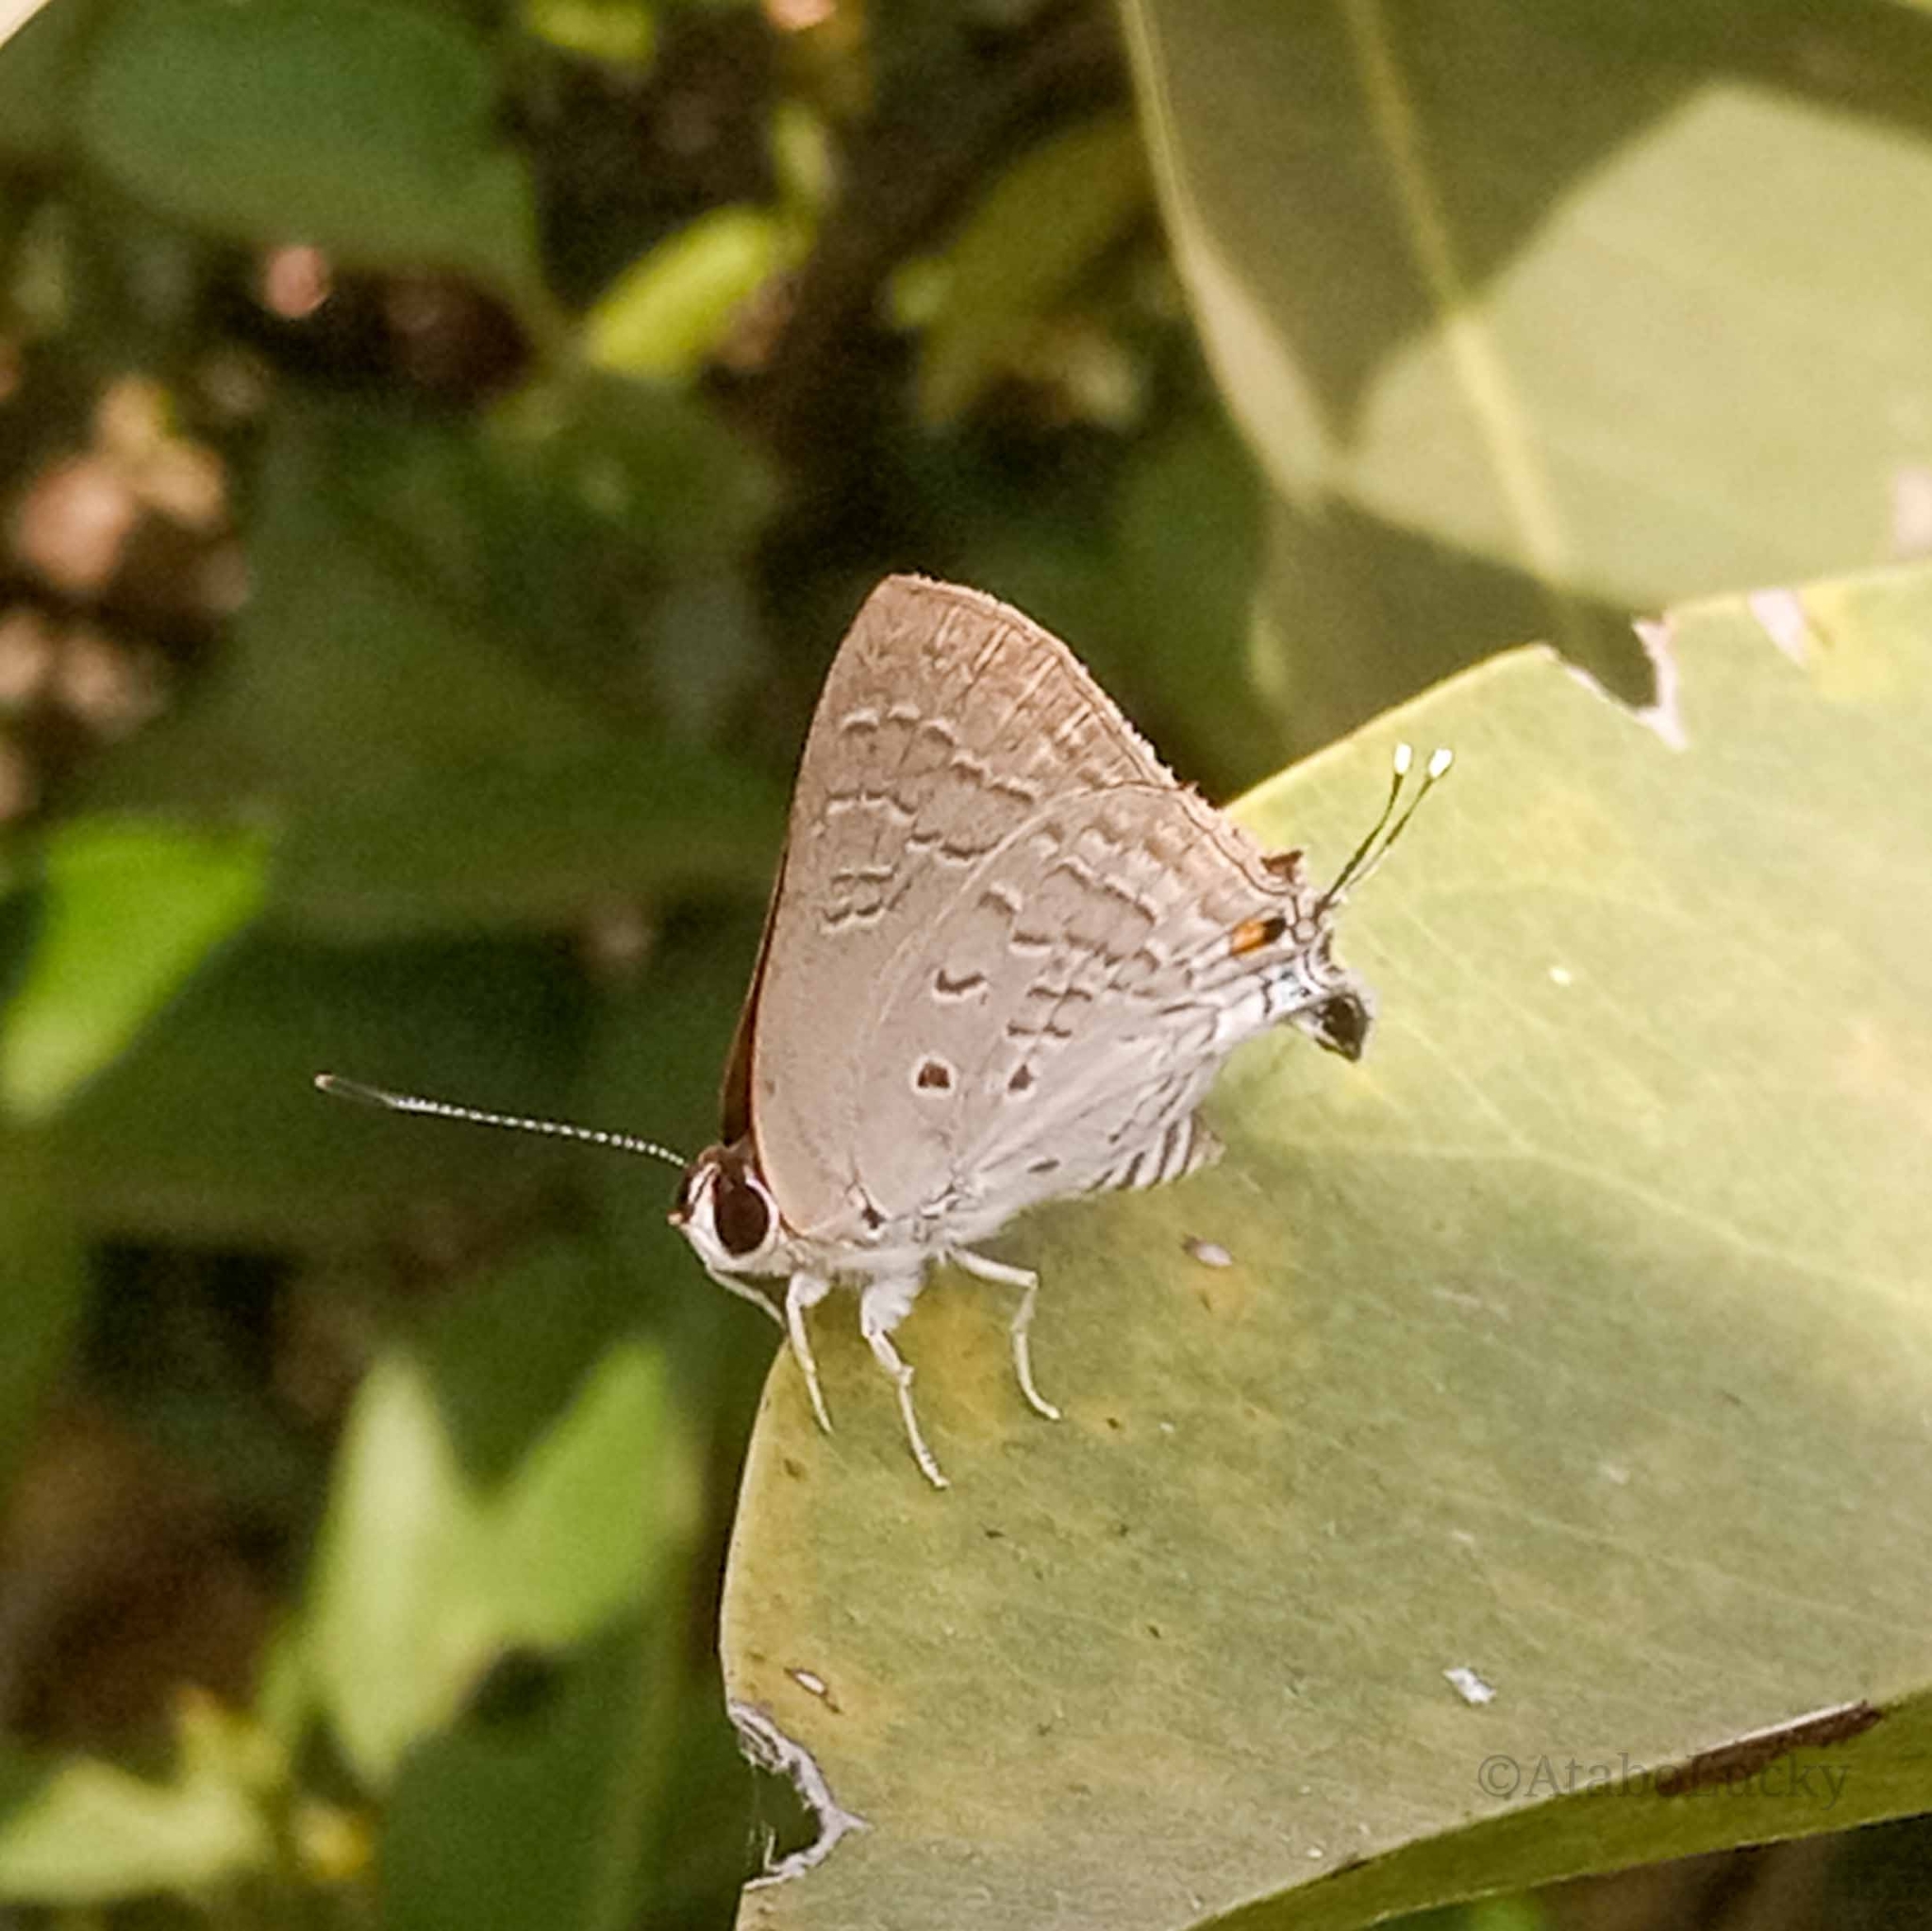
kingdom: Animalia
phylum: Arthropoda
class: Insecta
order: Lepidoptera
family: Lycaenidae
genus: Deudorix
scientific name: Deudorix antalus
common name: Brown playboy
